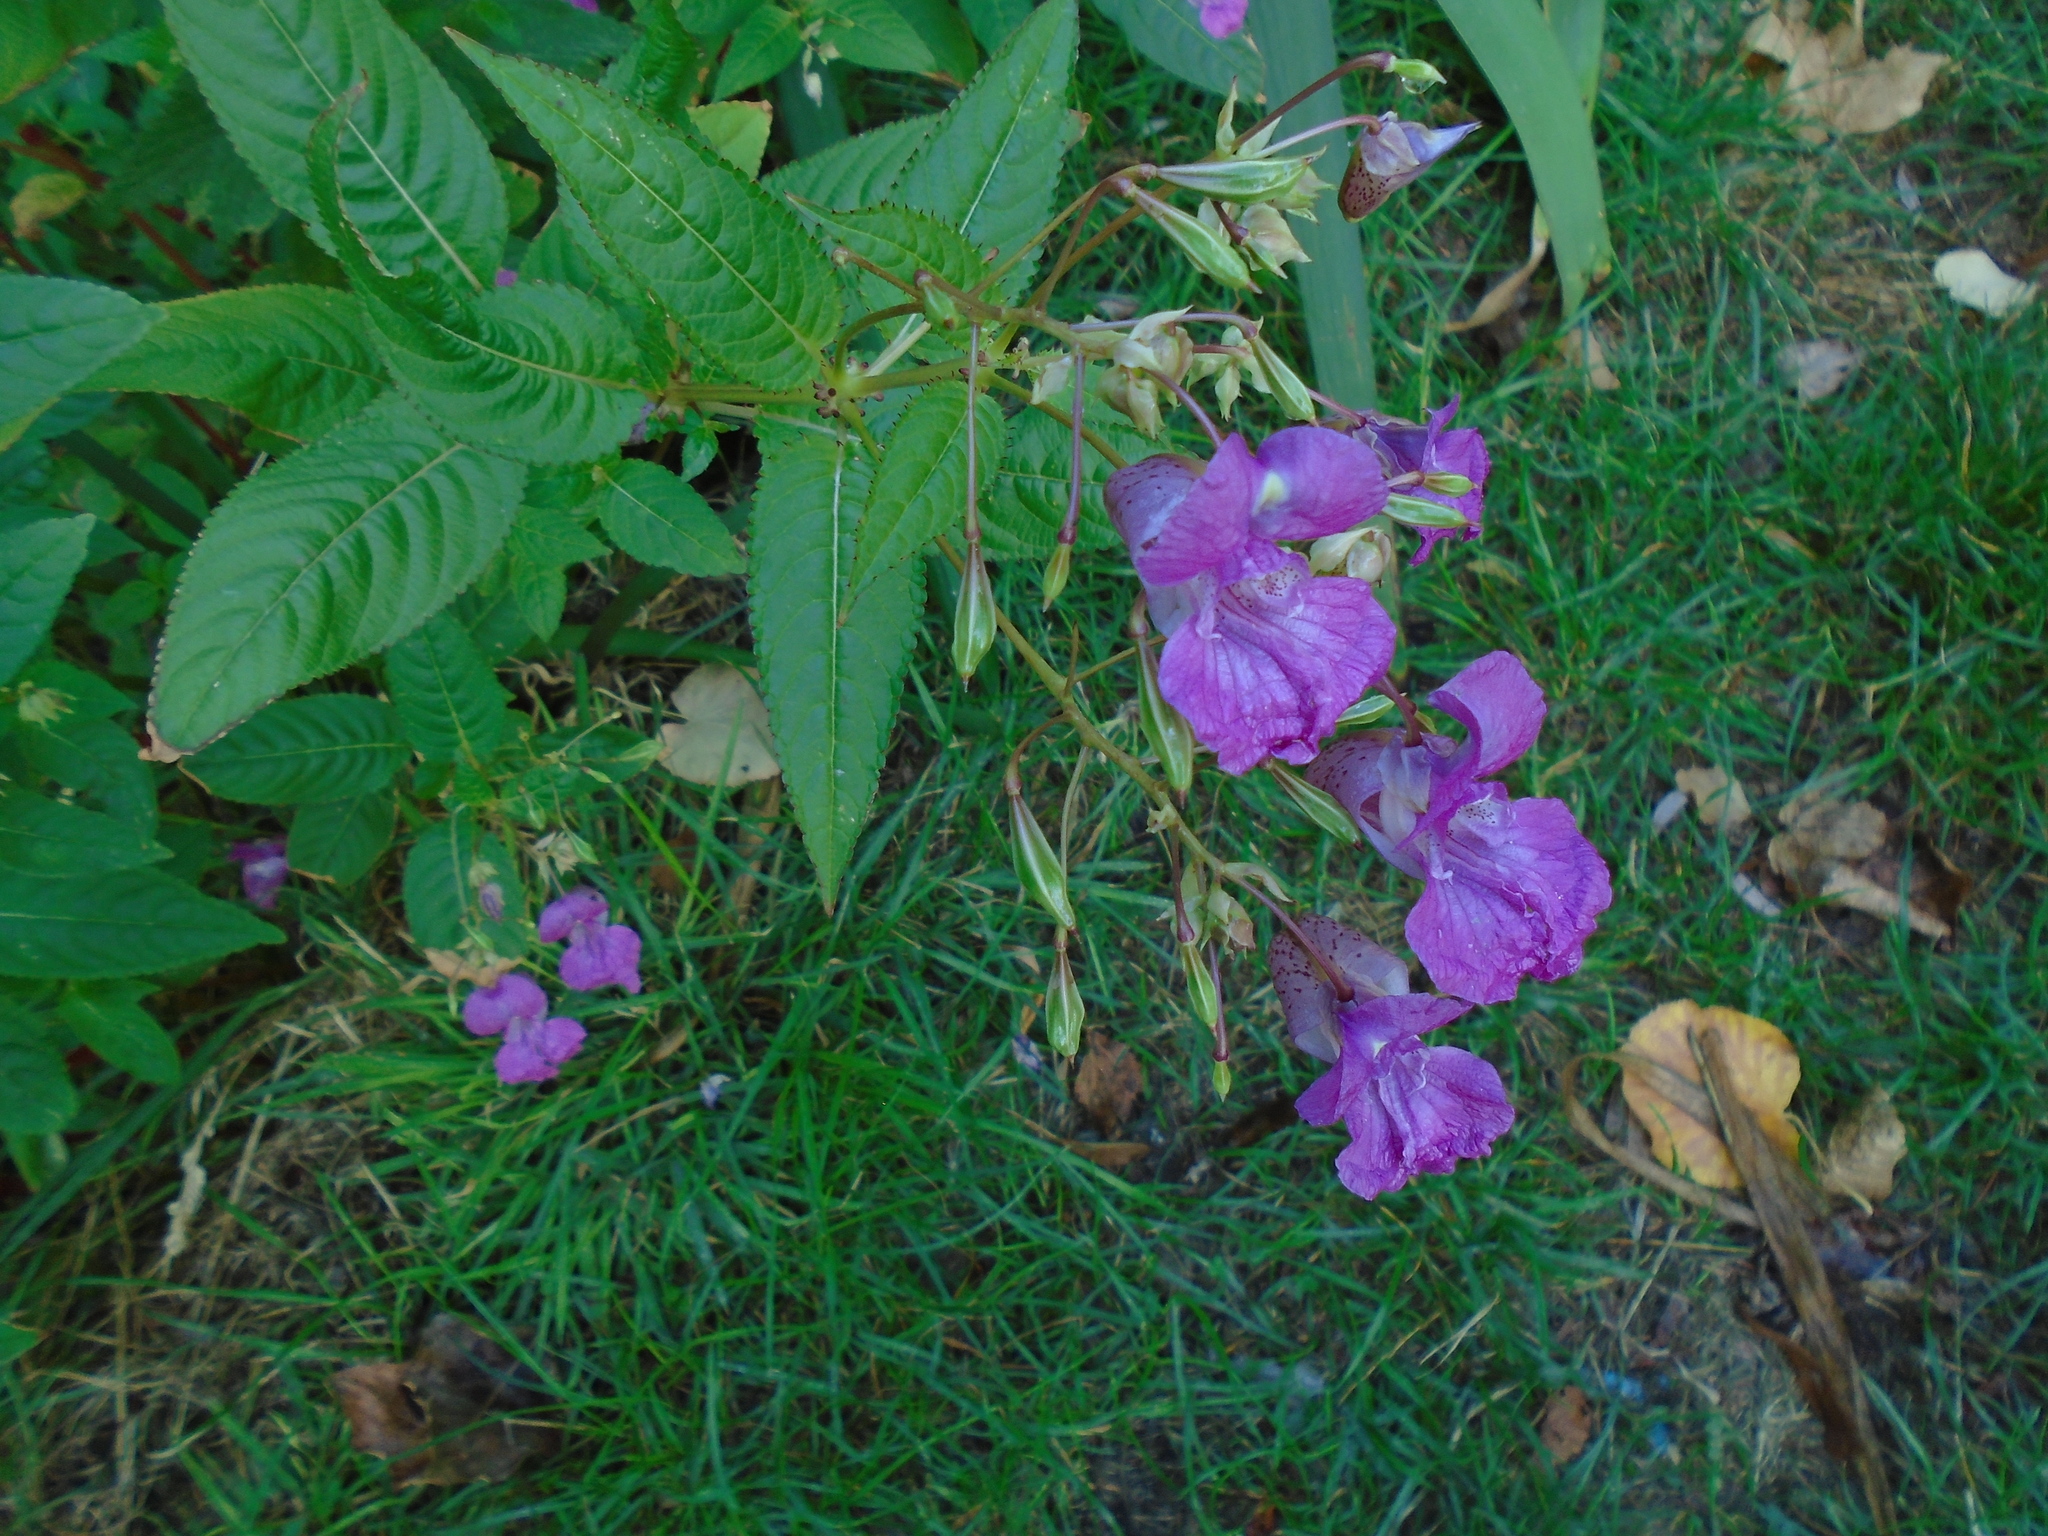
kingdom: Plantae
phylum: Tracheophyta
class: Magnoliopsida
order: Ericales
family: Balsaminaceae
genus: Impatiens
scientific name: Impatiens glandulifera
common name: Himalayan balsam
